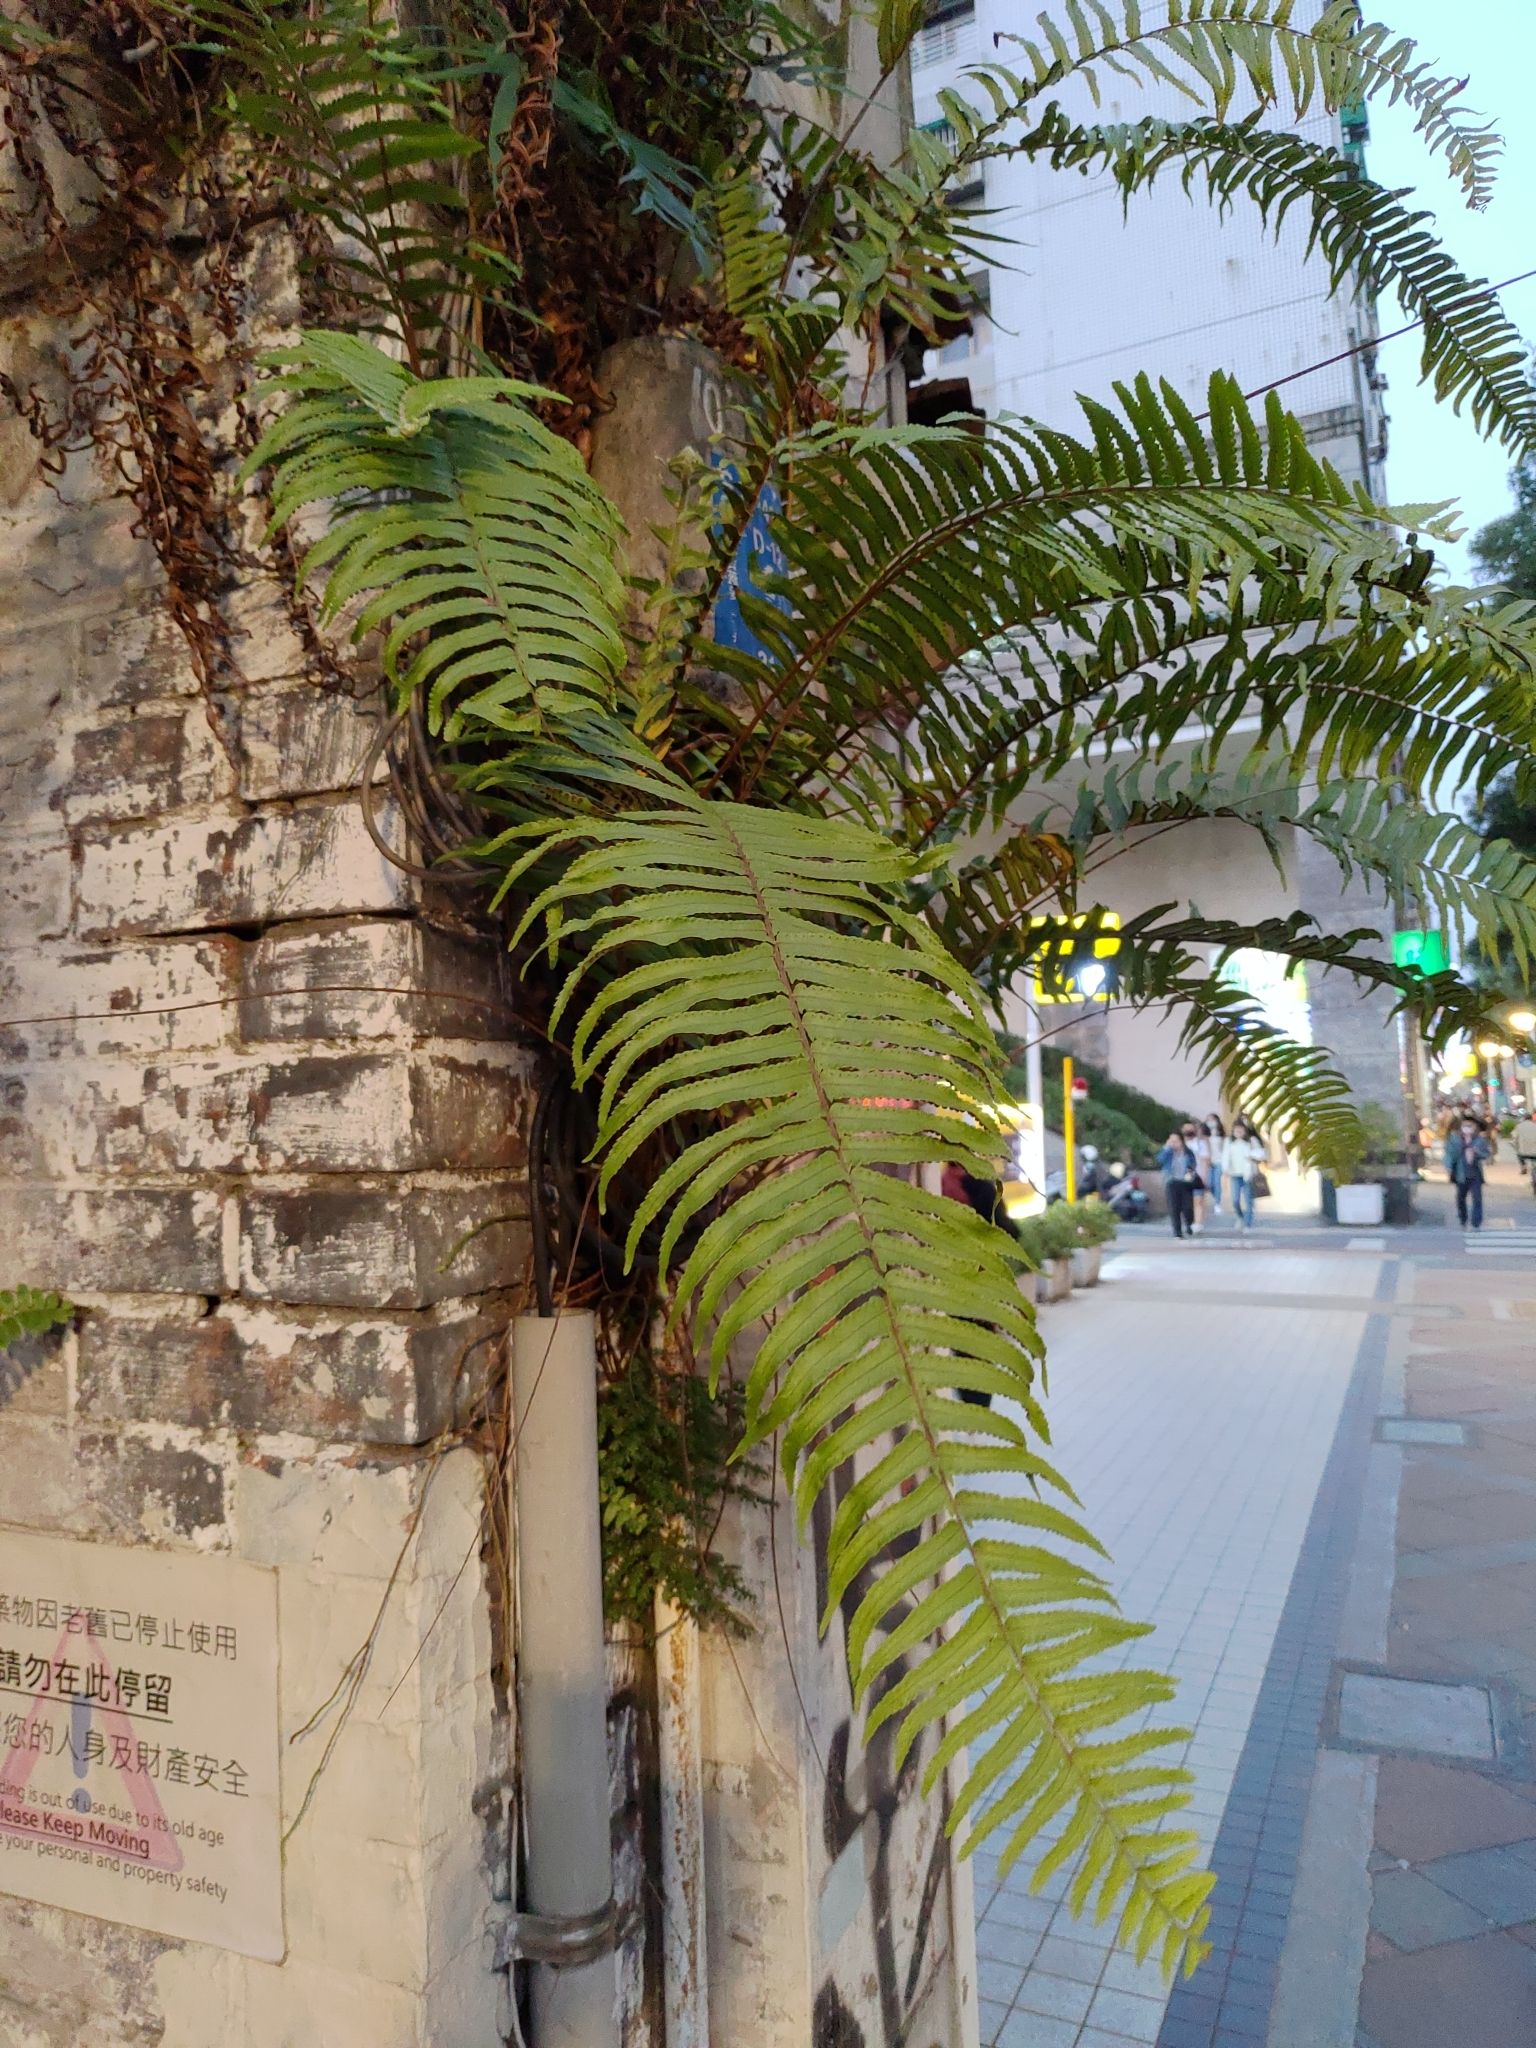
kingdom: Plantae
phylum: Tracheophyta
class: Polypodiopsida
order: Polypodiales
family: Nephrolepidaceae
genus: Nephrolepis
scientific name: Nephrolepis brownii
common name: Asian swordfern
